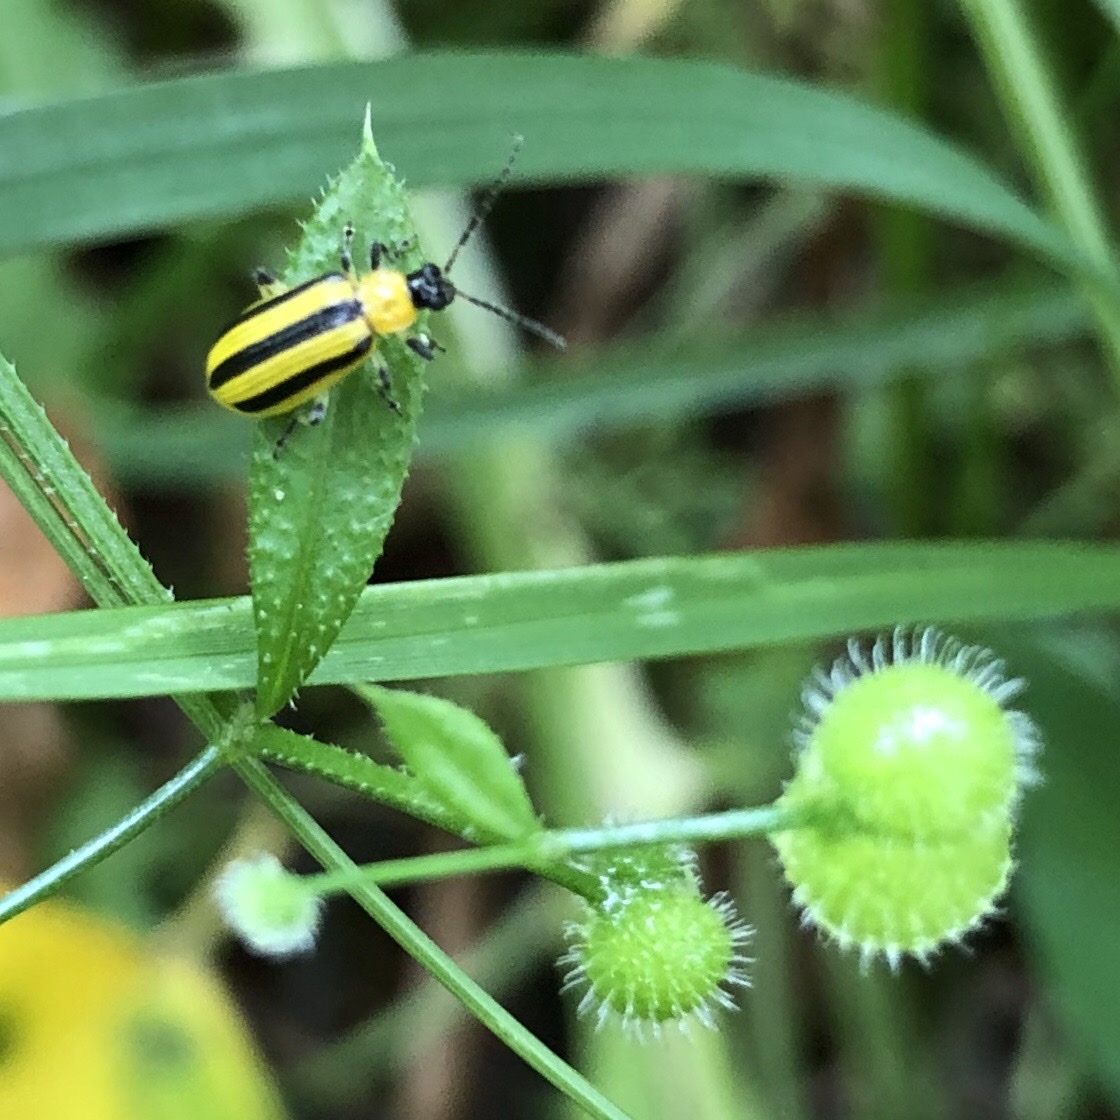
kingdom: Animalia
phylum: Arthropoda
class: Insecta
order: Coleoptera
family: Chrysomelidae
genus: Acalymma
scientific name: Acalymma vittatum
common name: Striped cucumber beetle
